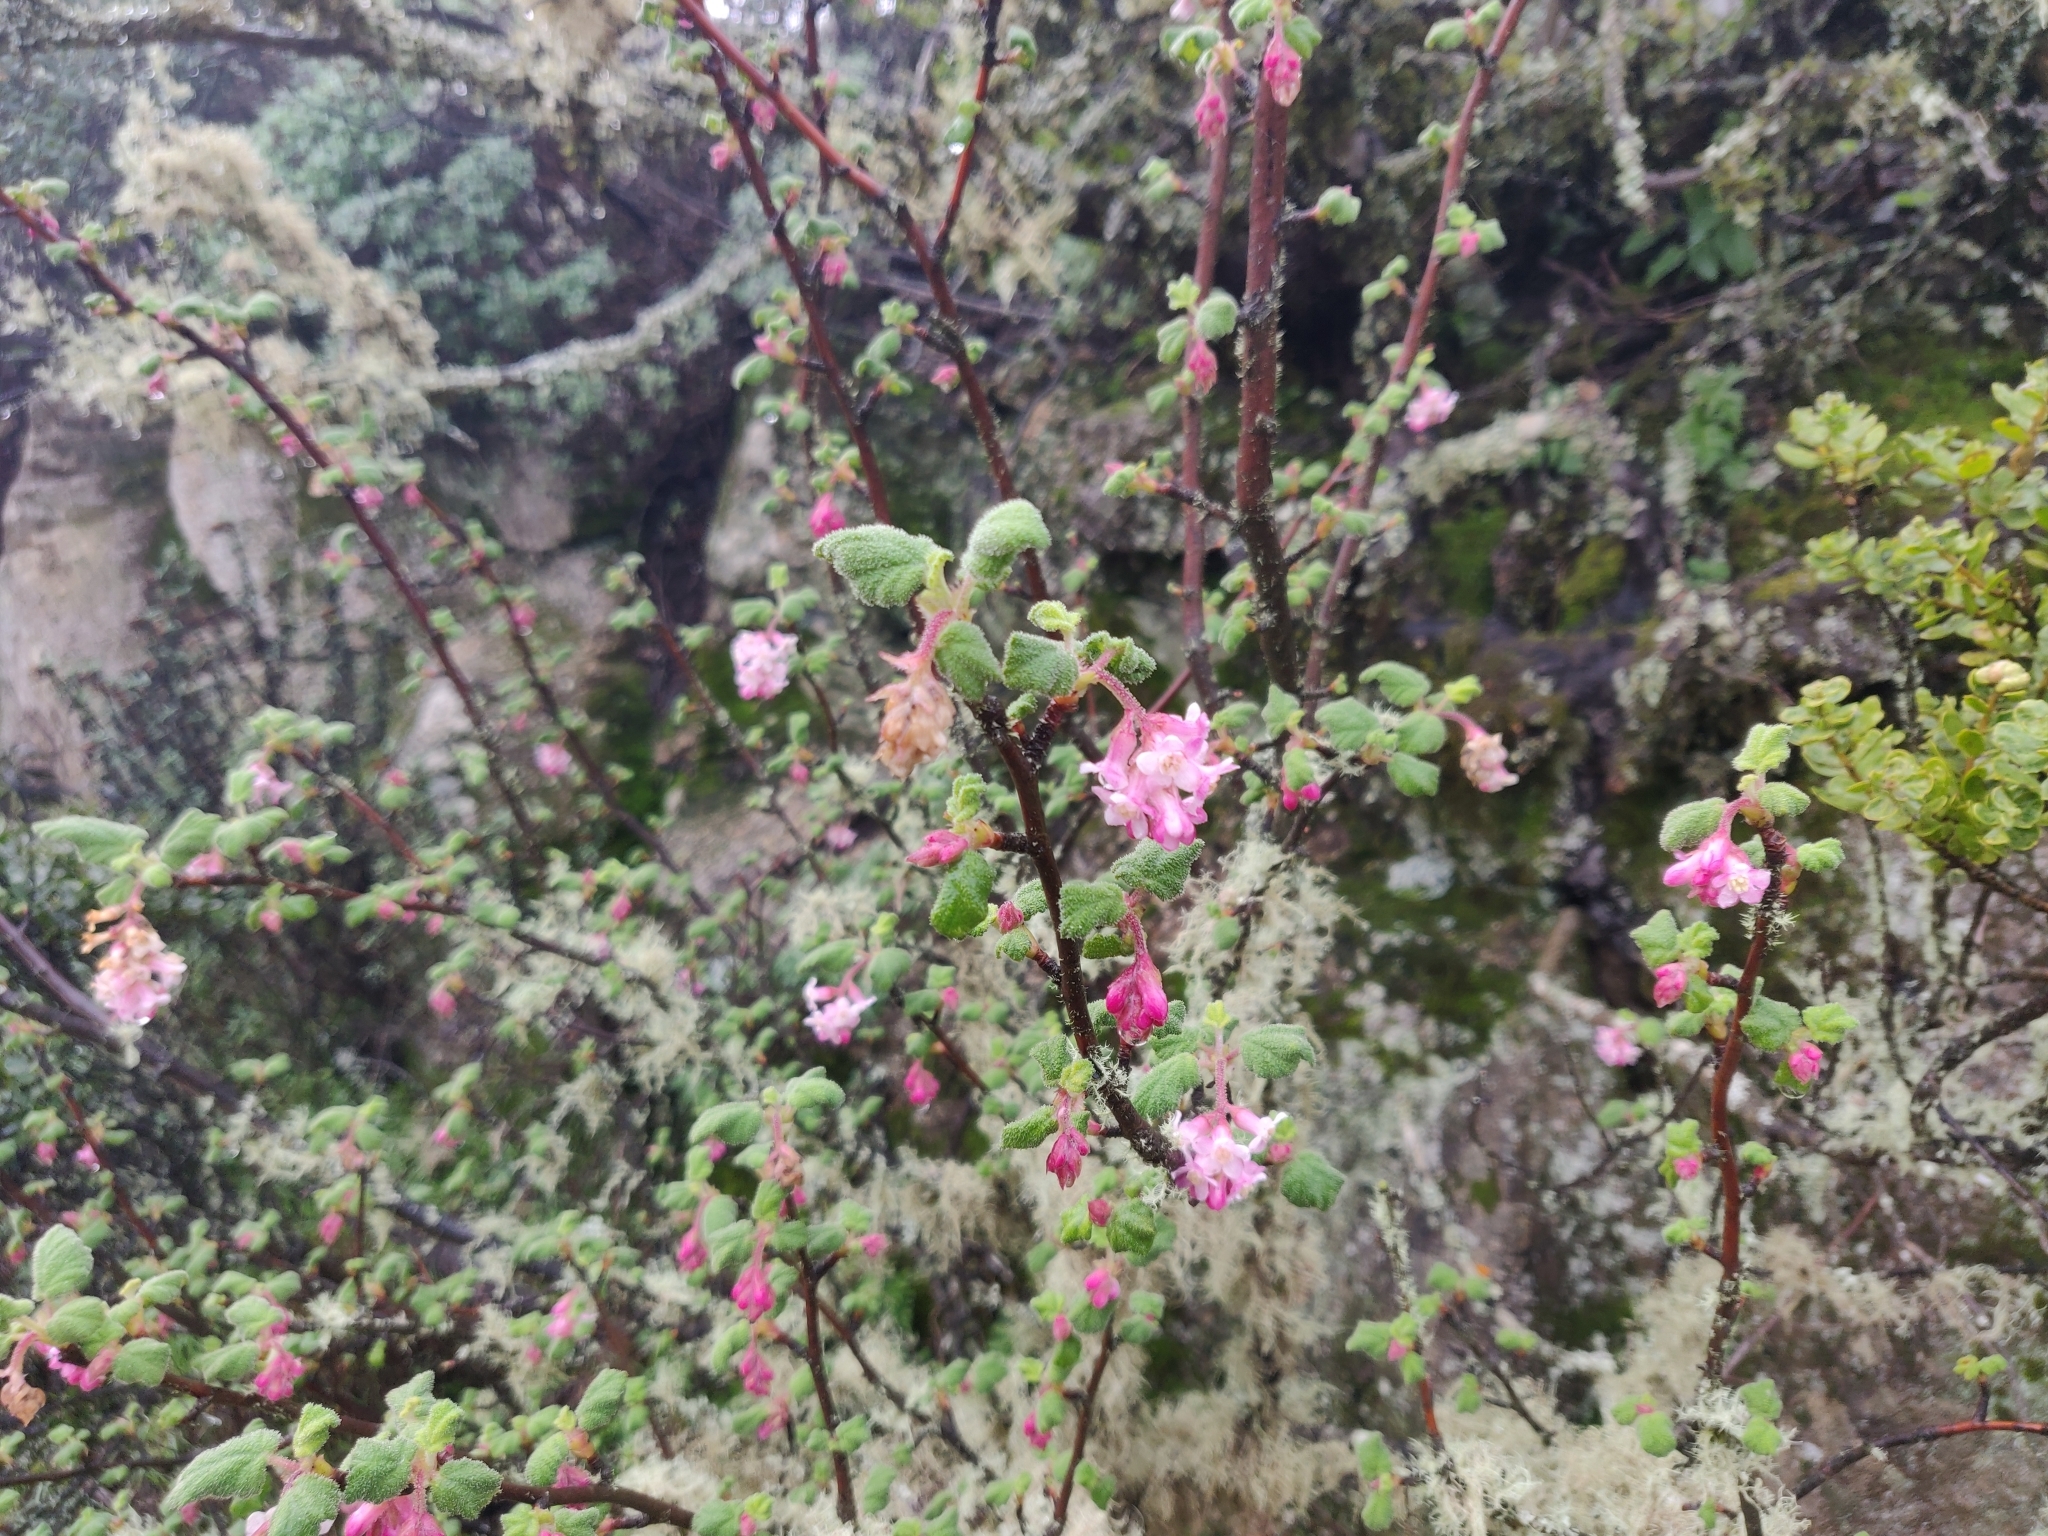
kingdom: Plantae
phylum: Tracheophyta
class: Magnoliopsida
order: Saxifragales
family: Grossulariaceae
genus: Ribes
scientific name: Ribes malvaceum
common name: Chaparral currant
